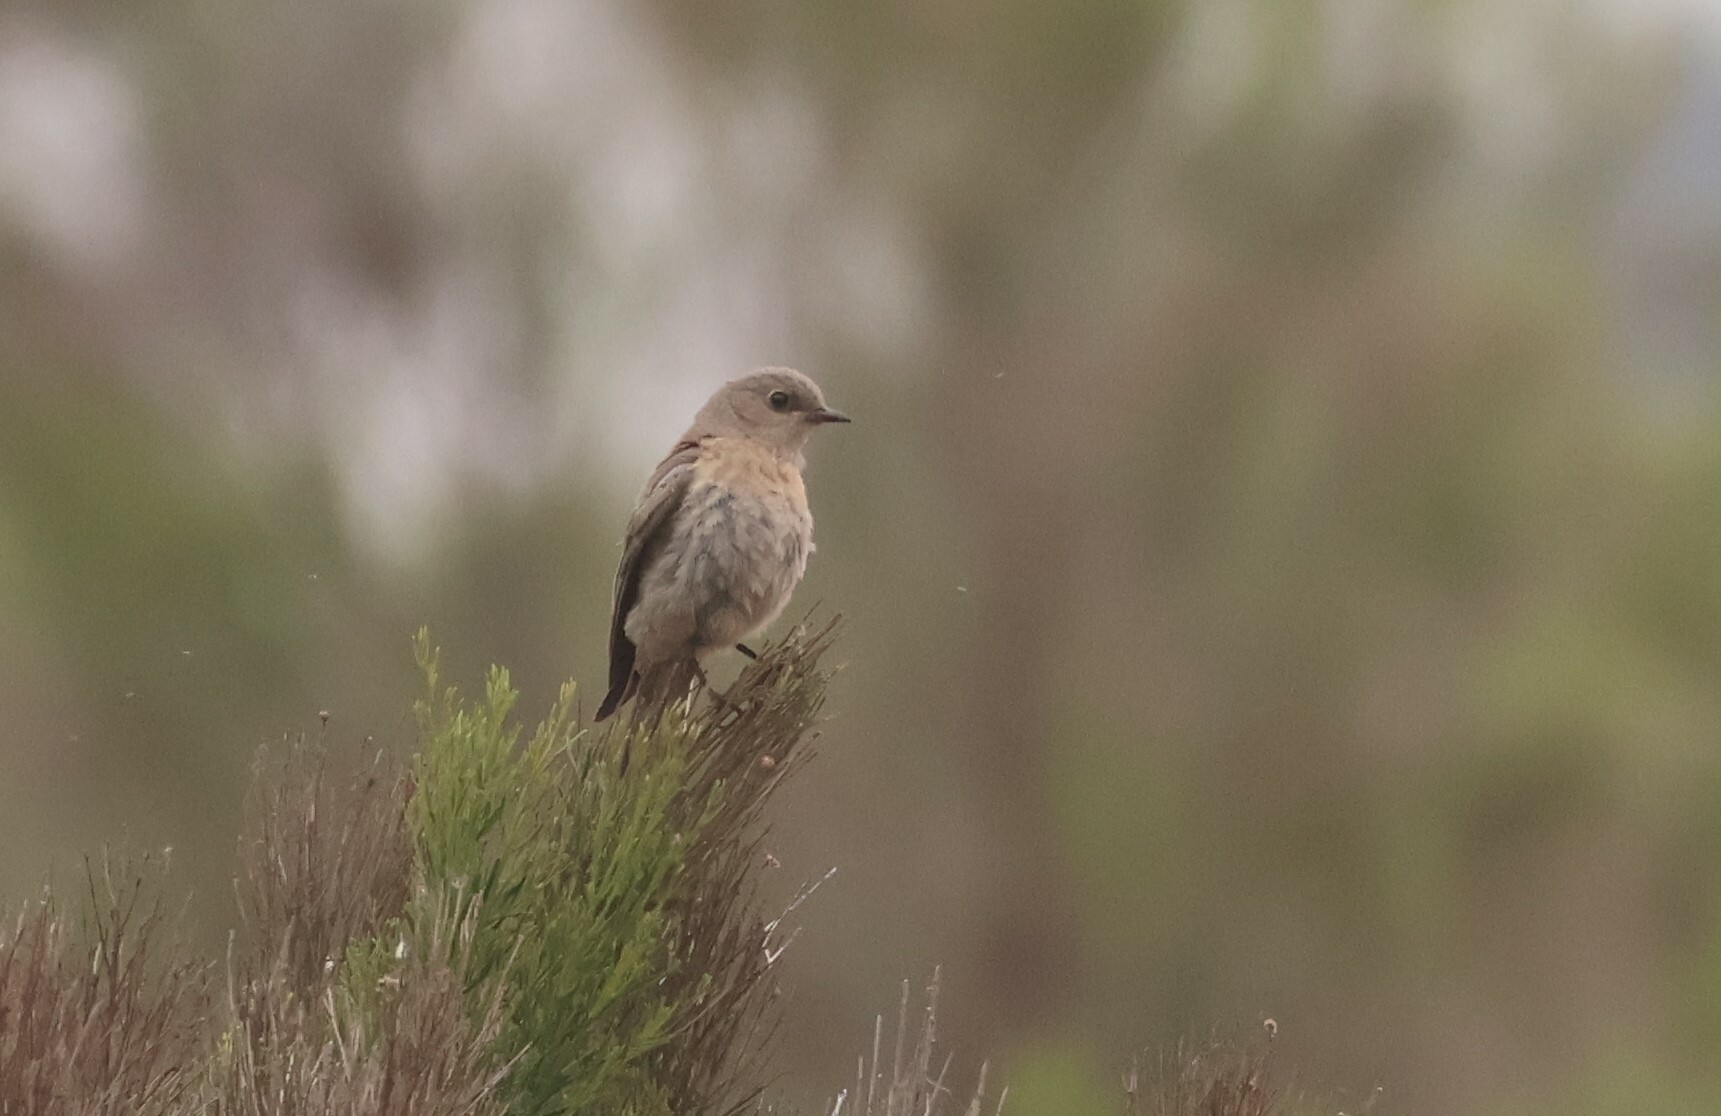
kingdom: Animalia
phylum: Chordata
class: Aves
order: Passeriformes
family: Turdidae
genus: Sialia
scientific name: Sialia mexicana
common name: Western bluebird
